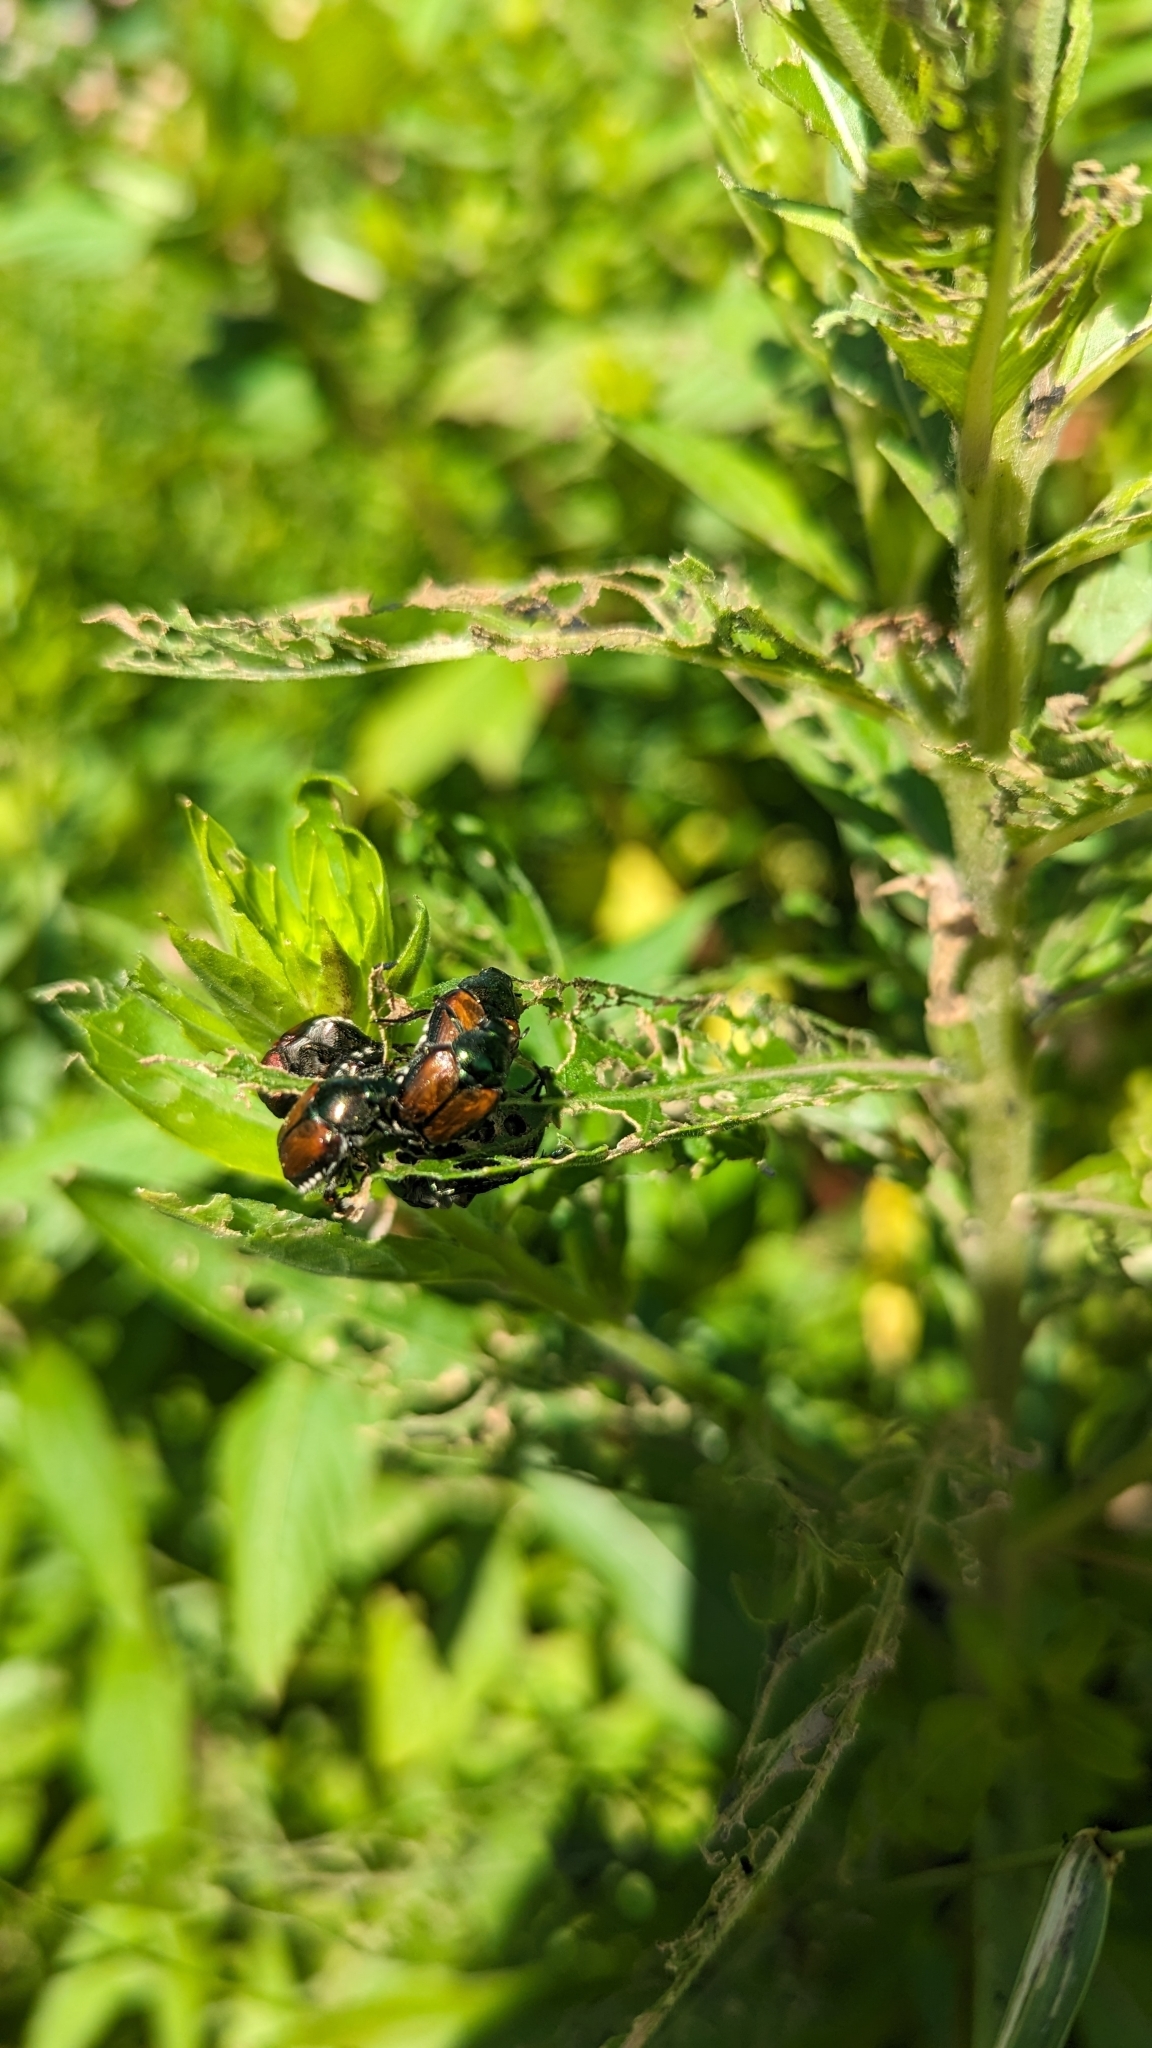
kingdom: Animalia
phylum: Arthropoda
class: Insecta
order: Coleoptera
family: Scarabaeidae
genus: Popillia
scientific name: Popillia japonica
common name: Japanese beetle
